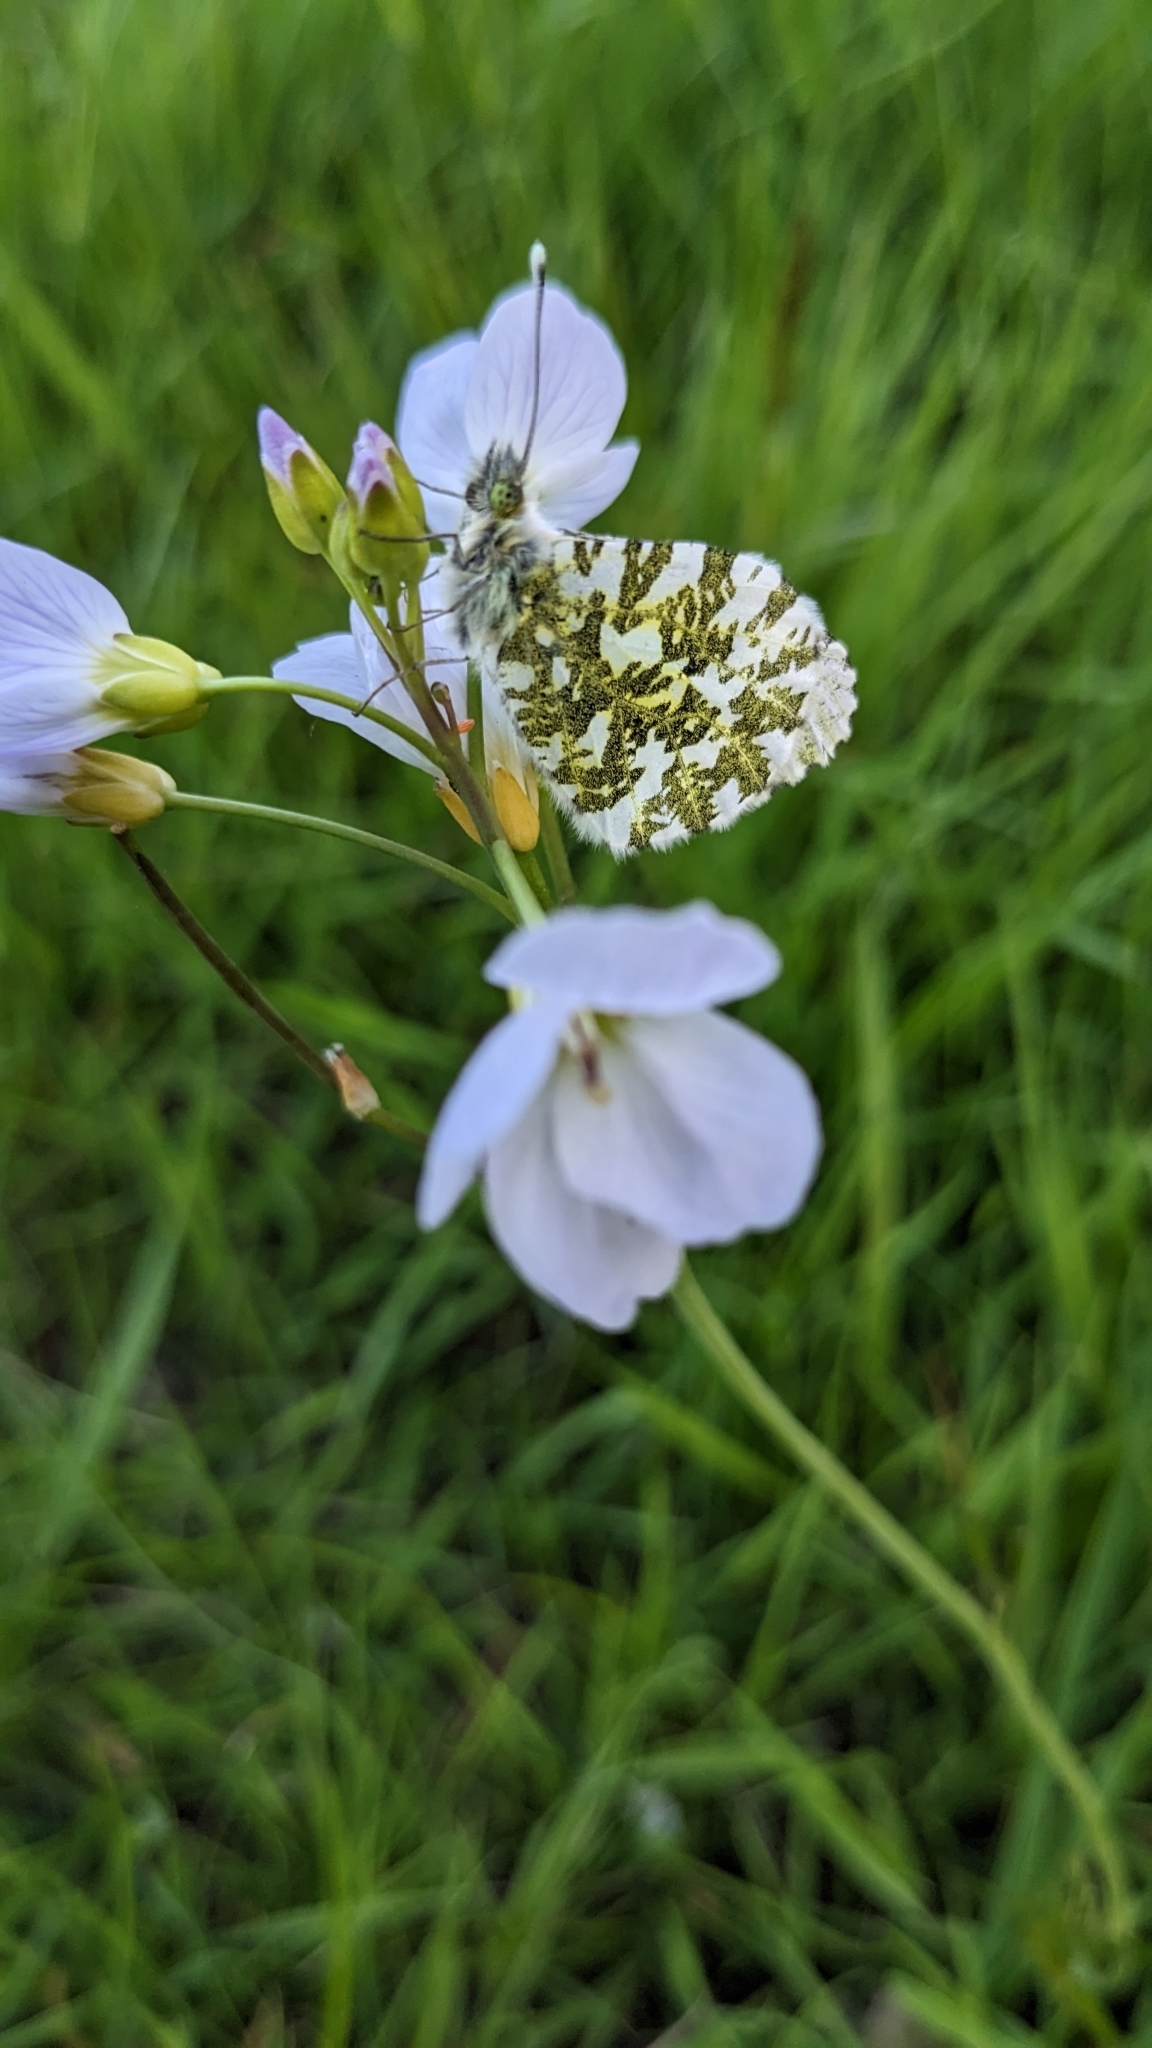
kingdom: Animalia
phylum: Arthropoda
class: Insecta
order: Lepidoptera
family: Pieridae
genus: Anthocharis
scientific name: Anthocharis cardamines
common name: Orange-tip
